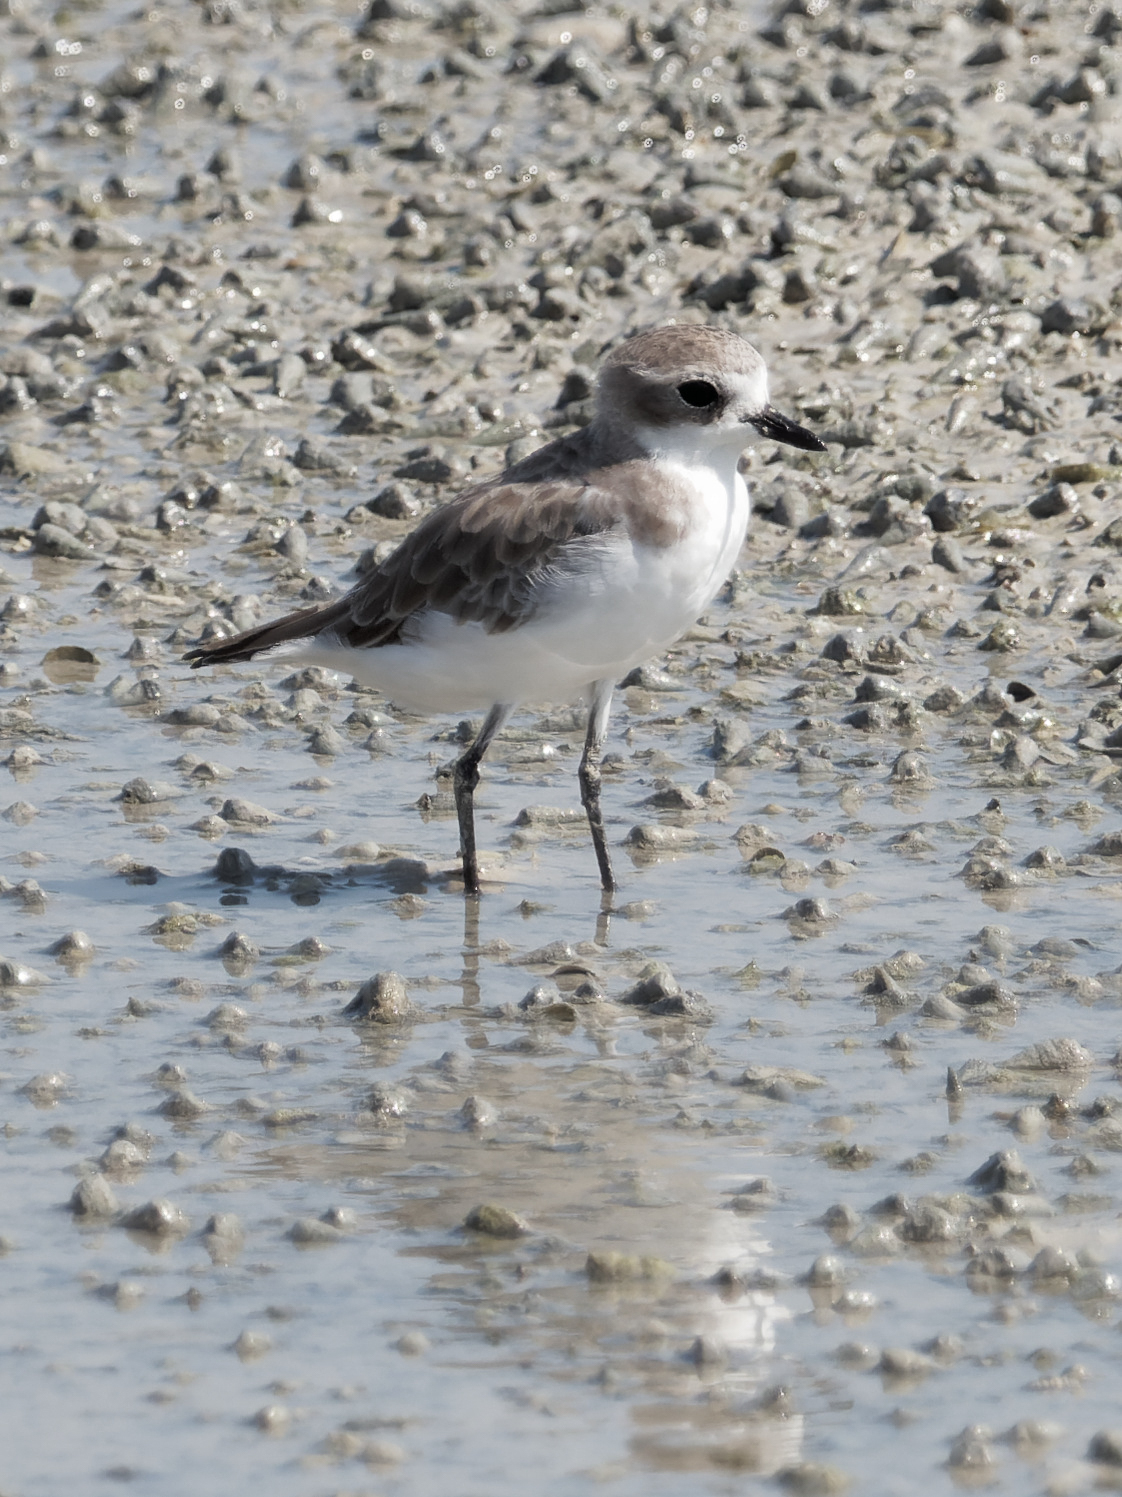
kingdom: Animalia
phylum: Chordata
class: Aves
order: Charadriiformes
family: Charadriidae
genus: Anarhynchus
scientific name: Anarhynchus
